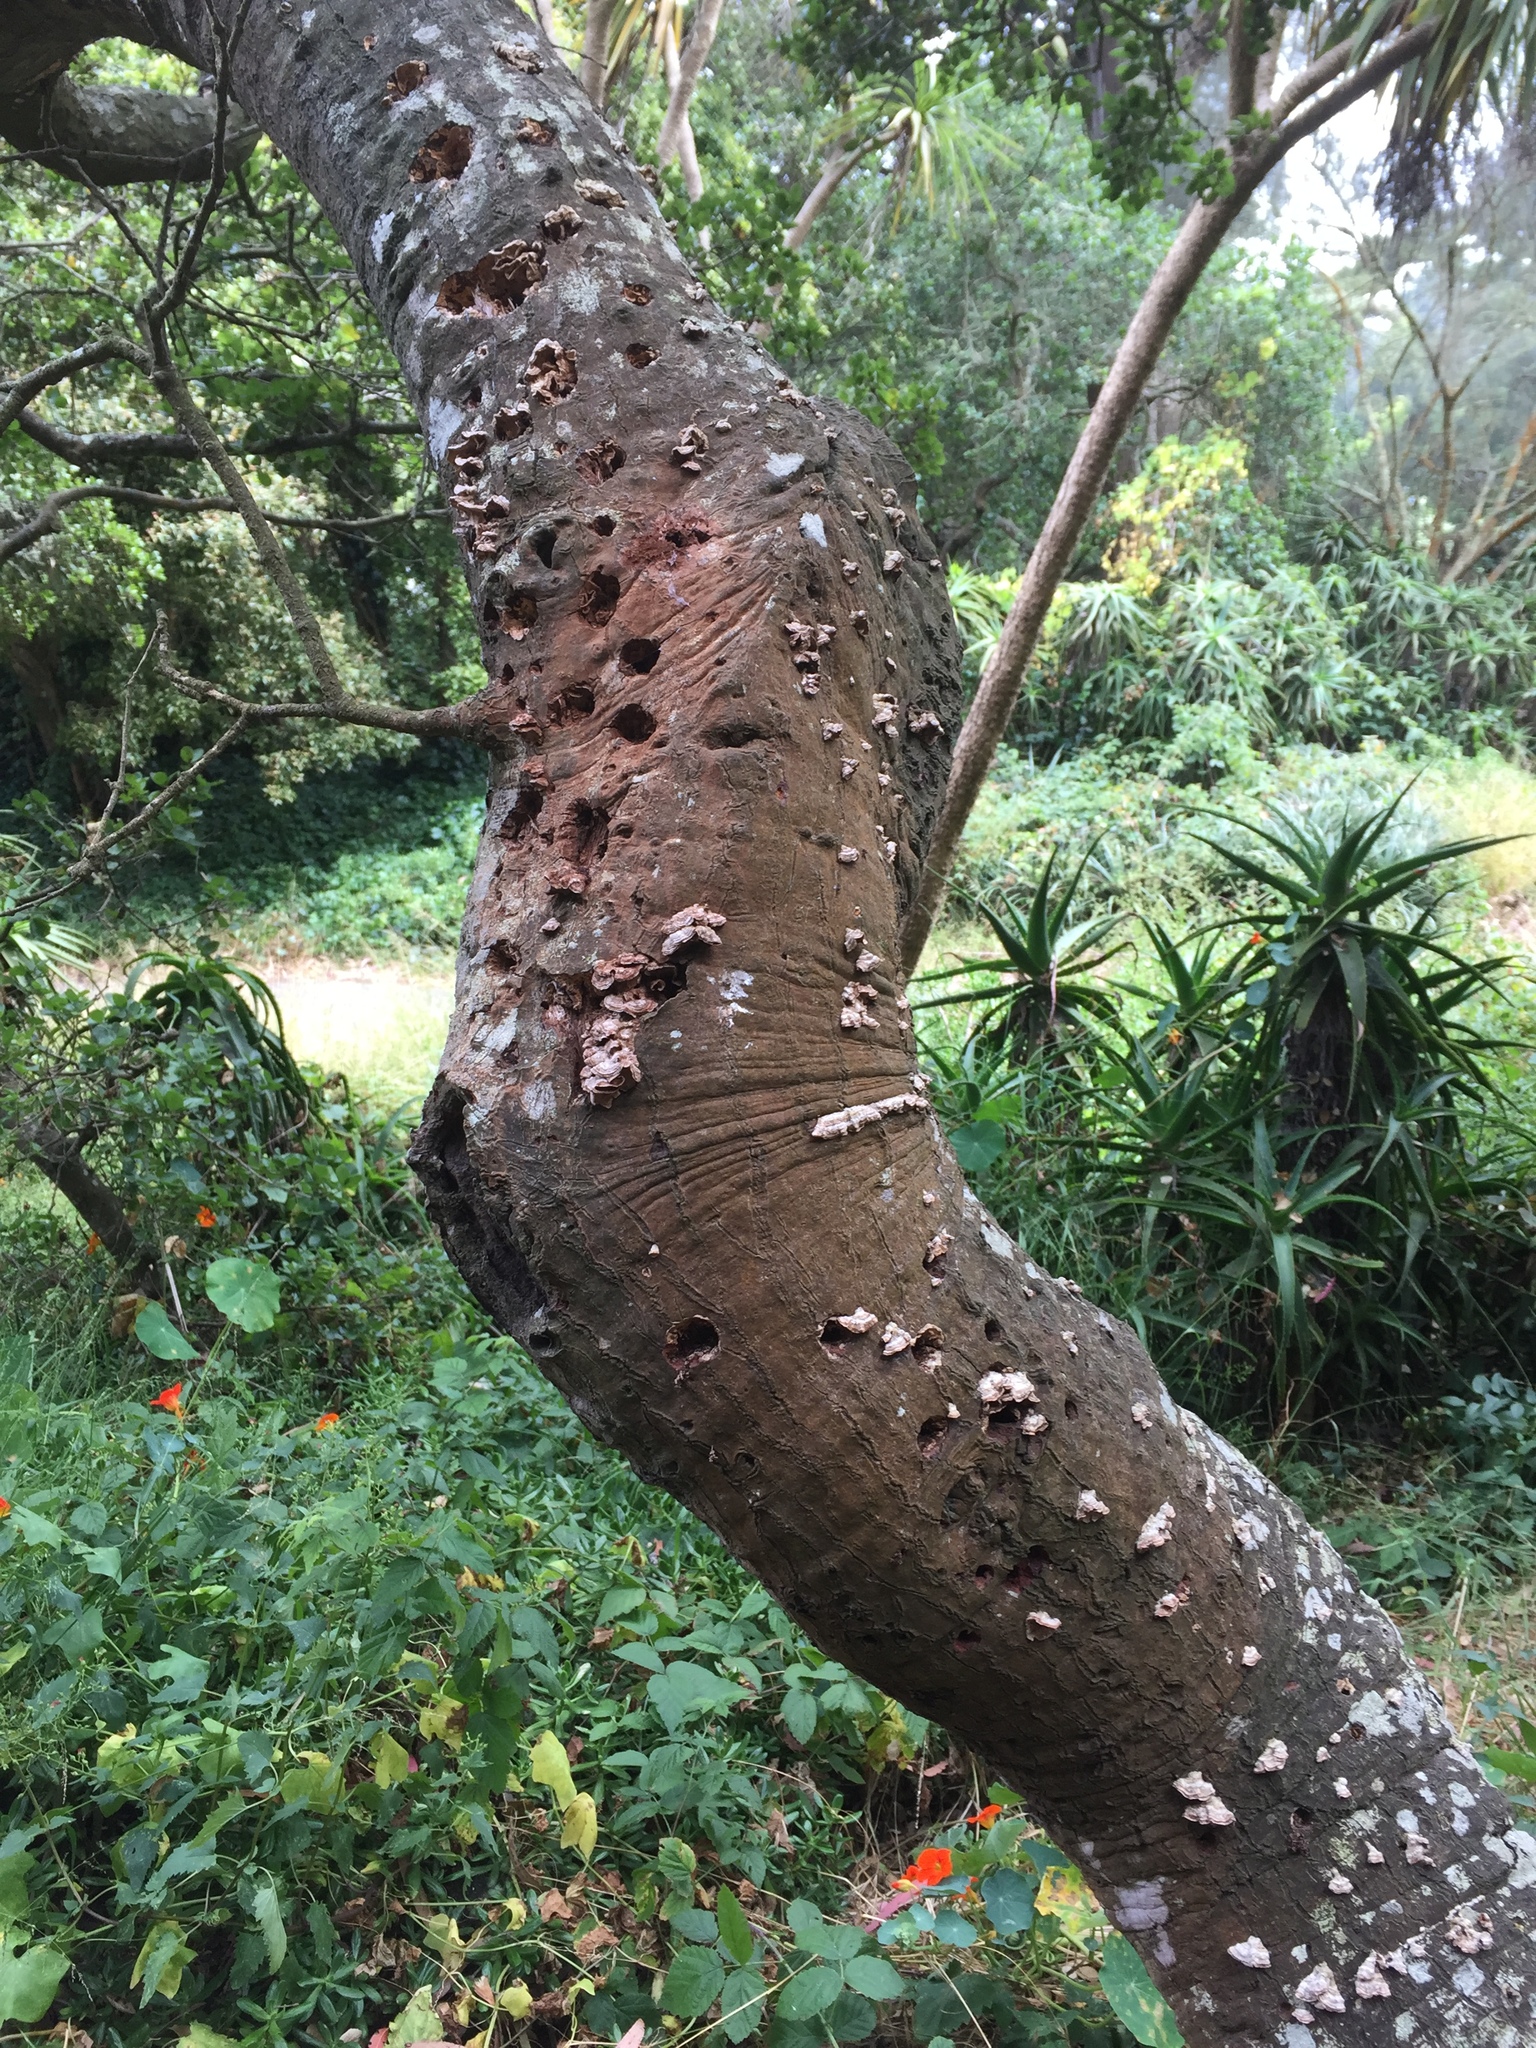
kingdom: Fungi
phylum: Basidiomycota
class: Agaricomycetes
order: Russulales
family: Stereaceae
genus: Stereum
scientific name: Stereum hirsutum
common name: Hairy curtain crust
